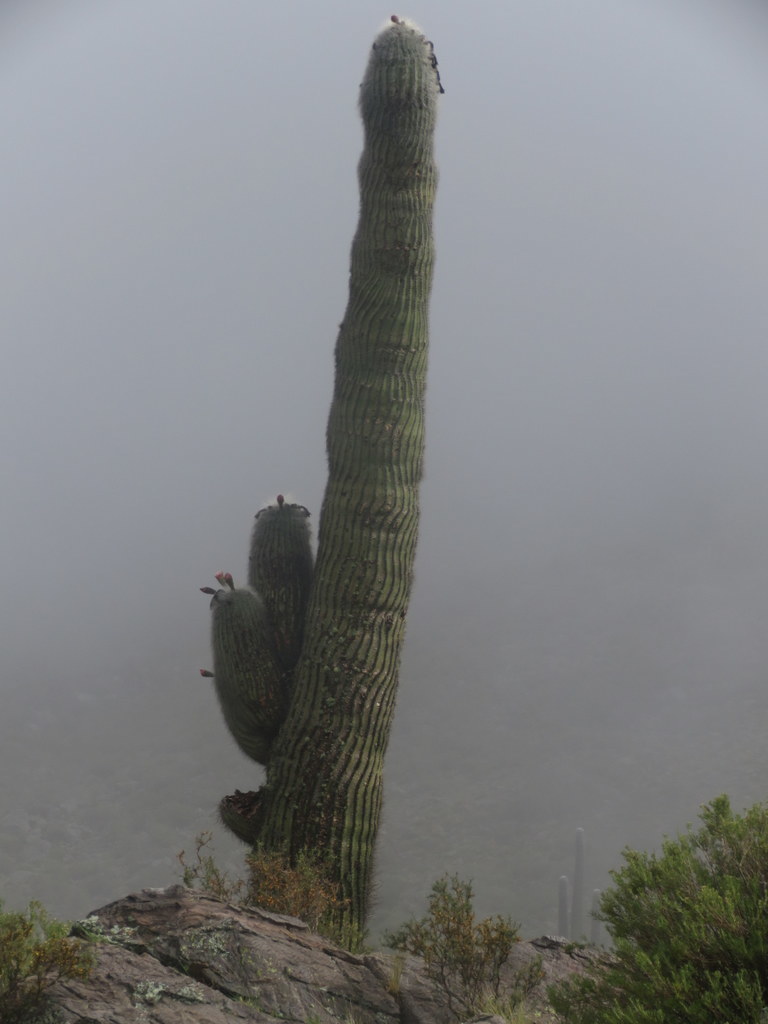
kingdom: Plantae
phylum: Tracheophyta
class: Magnoliopsida
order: Caryophyllales
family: Cactaceae
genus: Leucostele
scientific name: Leucostele atacamensis
